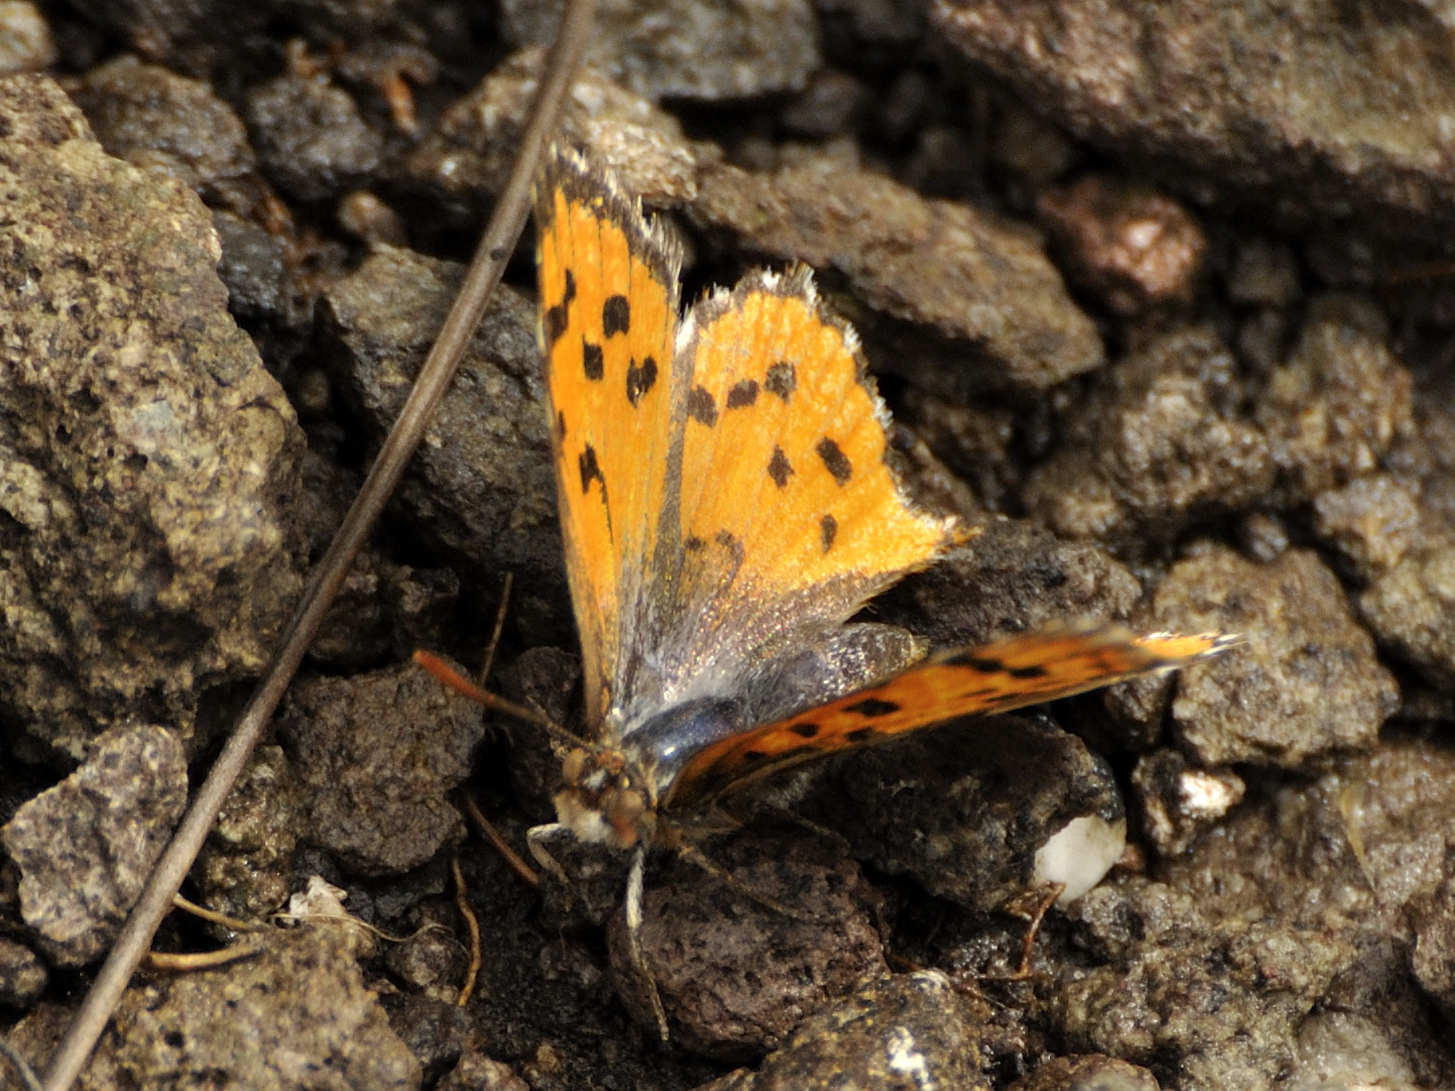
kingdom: Animalia
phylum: Arthropoda
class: Insecta
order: Lepidoptera
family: Lycaenidae
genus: Poecilmitis
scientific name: Poecilmitis pelion
